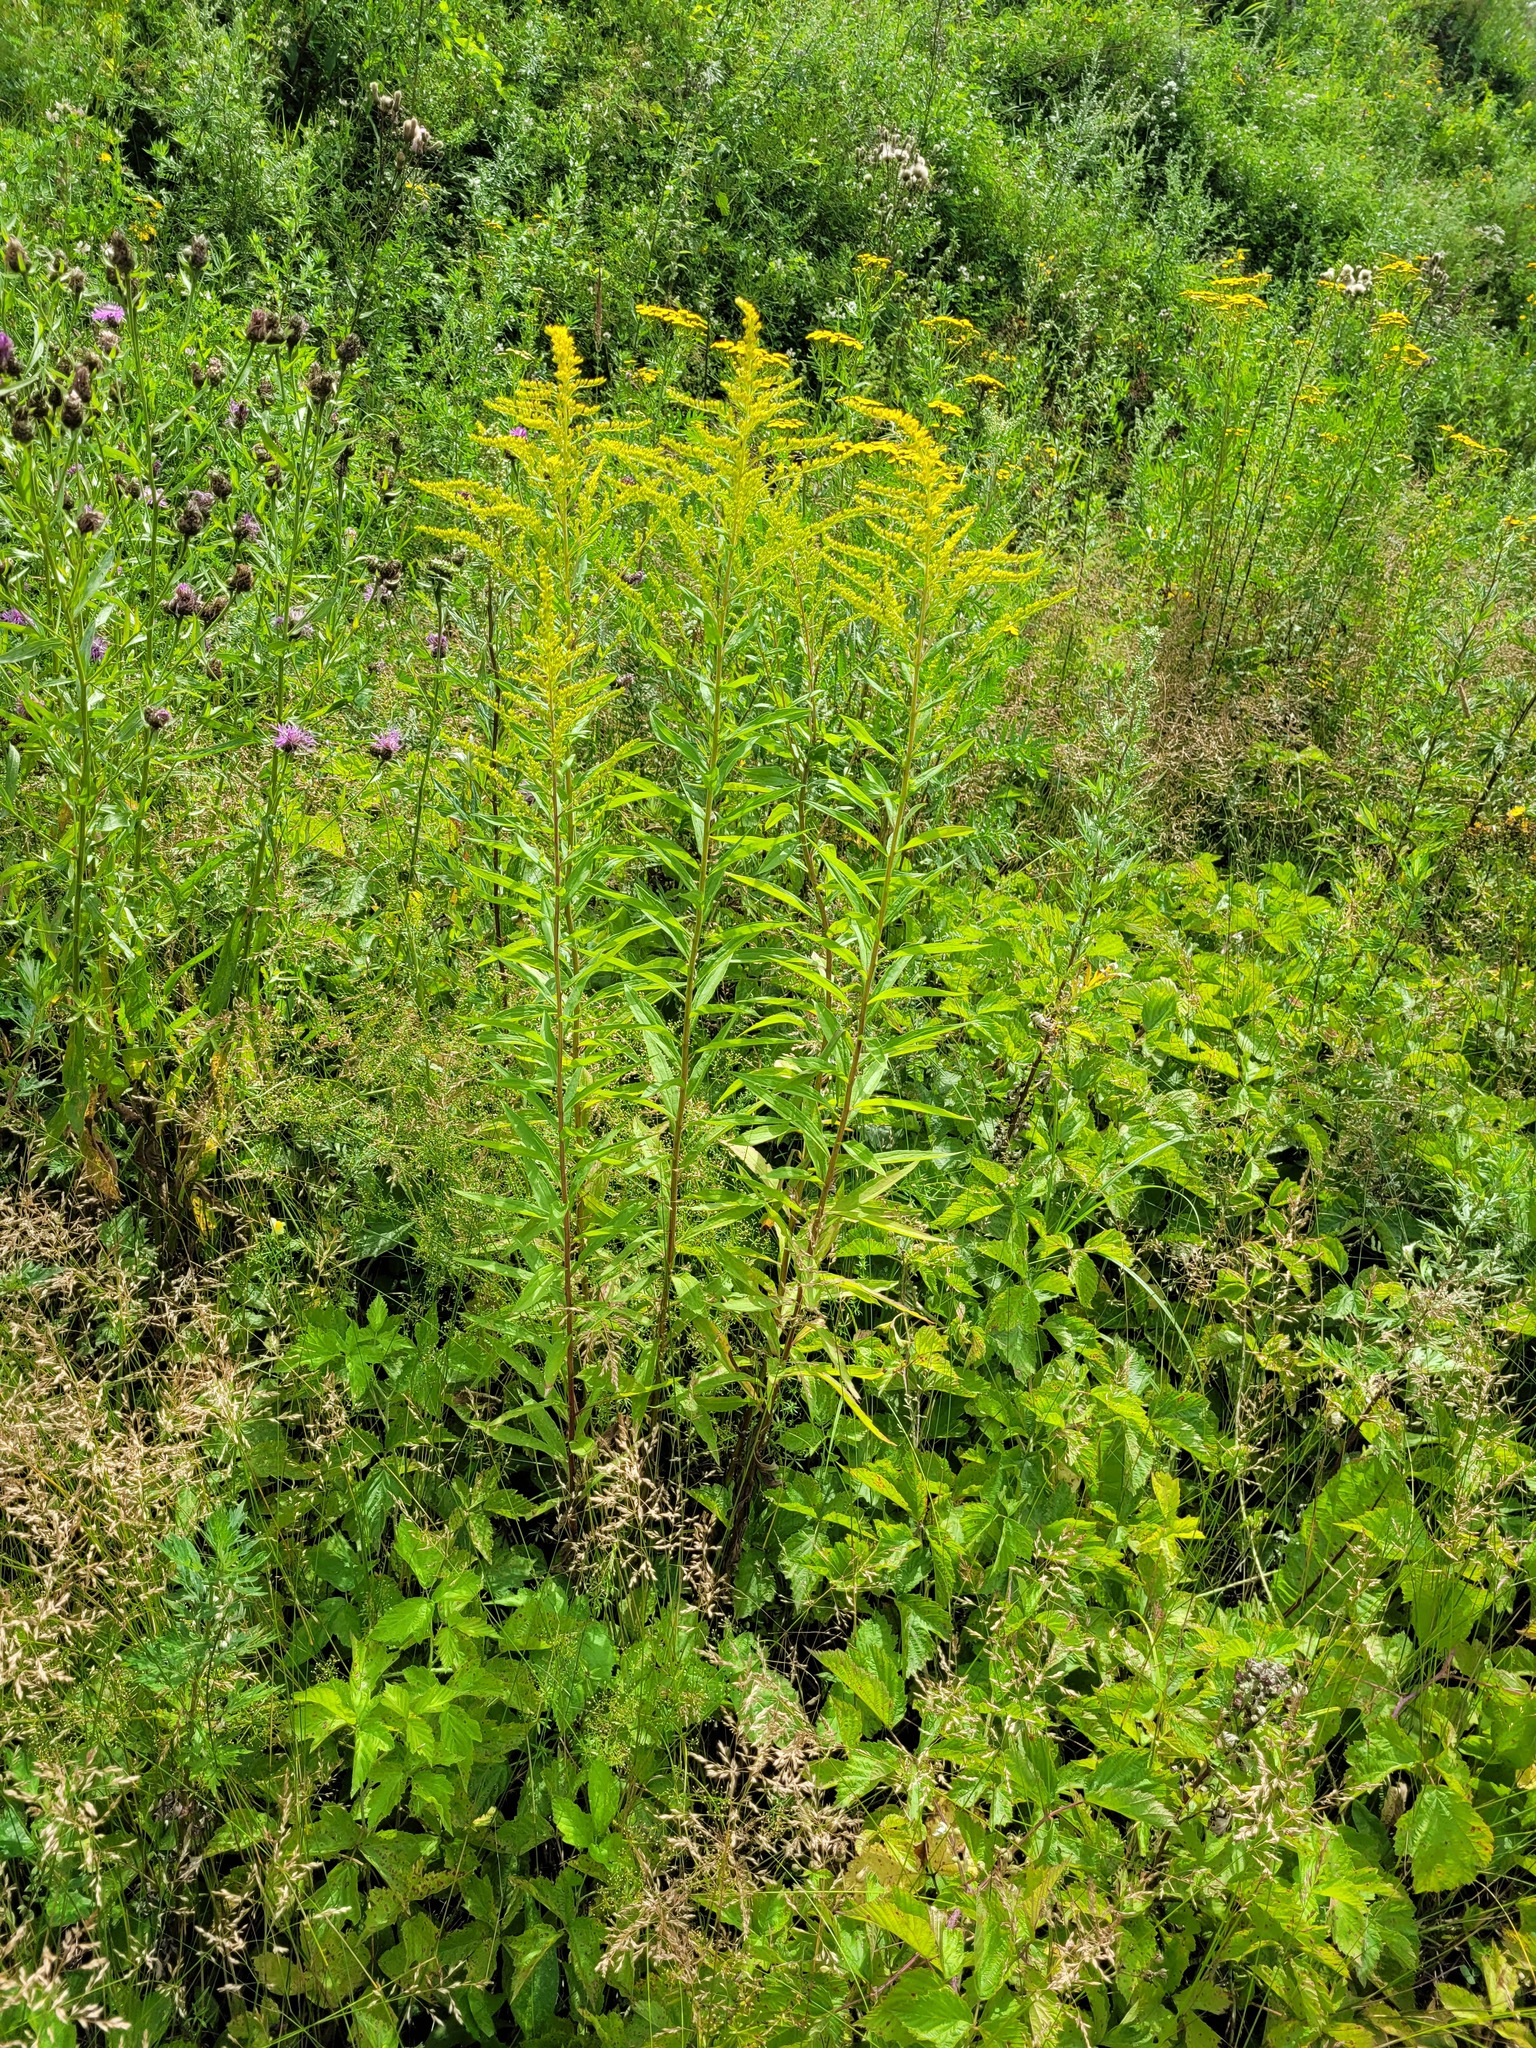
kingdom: Plantae
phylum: Tracheophyta
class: Magnoliopsida
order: Asterales
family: Asteraceae
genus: Solidago
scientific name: Solidago canadensis
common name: Canada goldenrod
